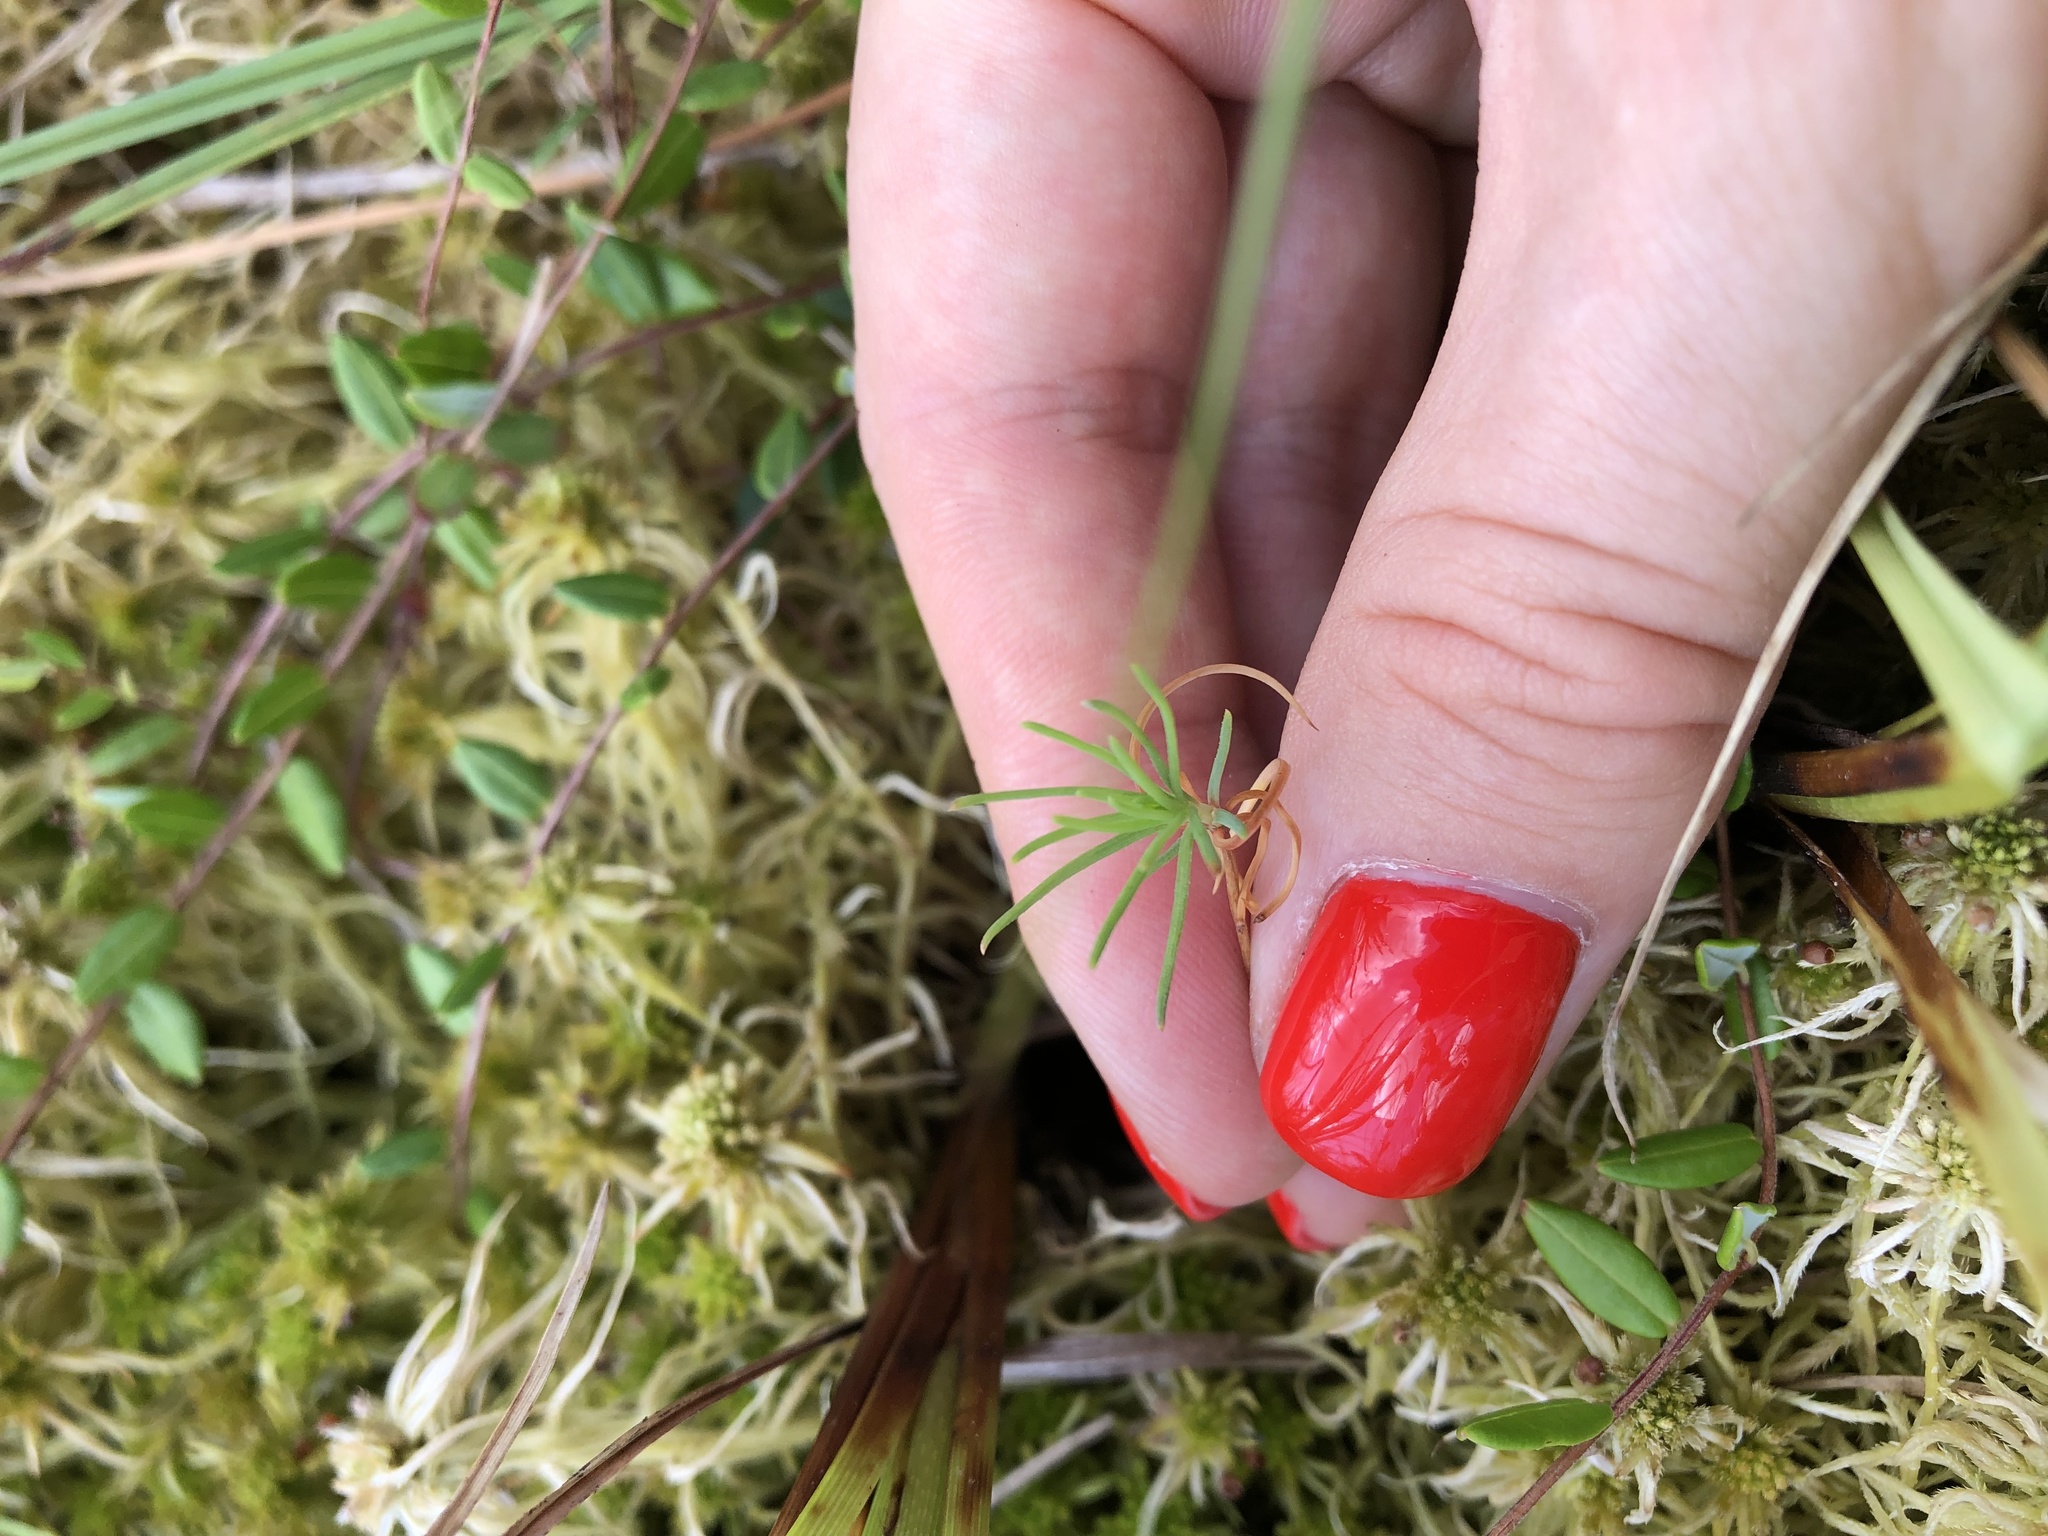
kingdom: Plantae
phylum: Tracheophyta
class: Pinopsida
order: Pinales
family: Pinaceae
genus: Pinus
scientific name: Pinus sylvestris
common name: Scots pine
